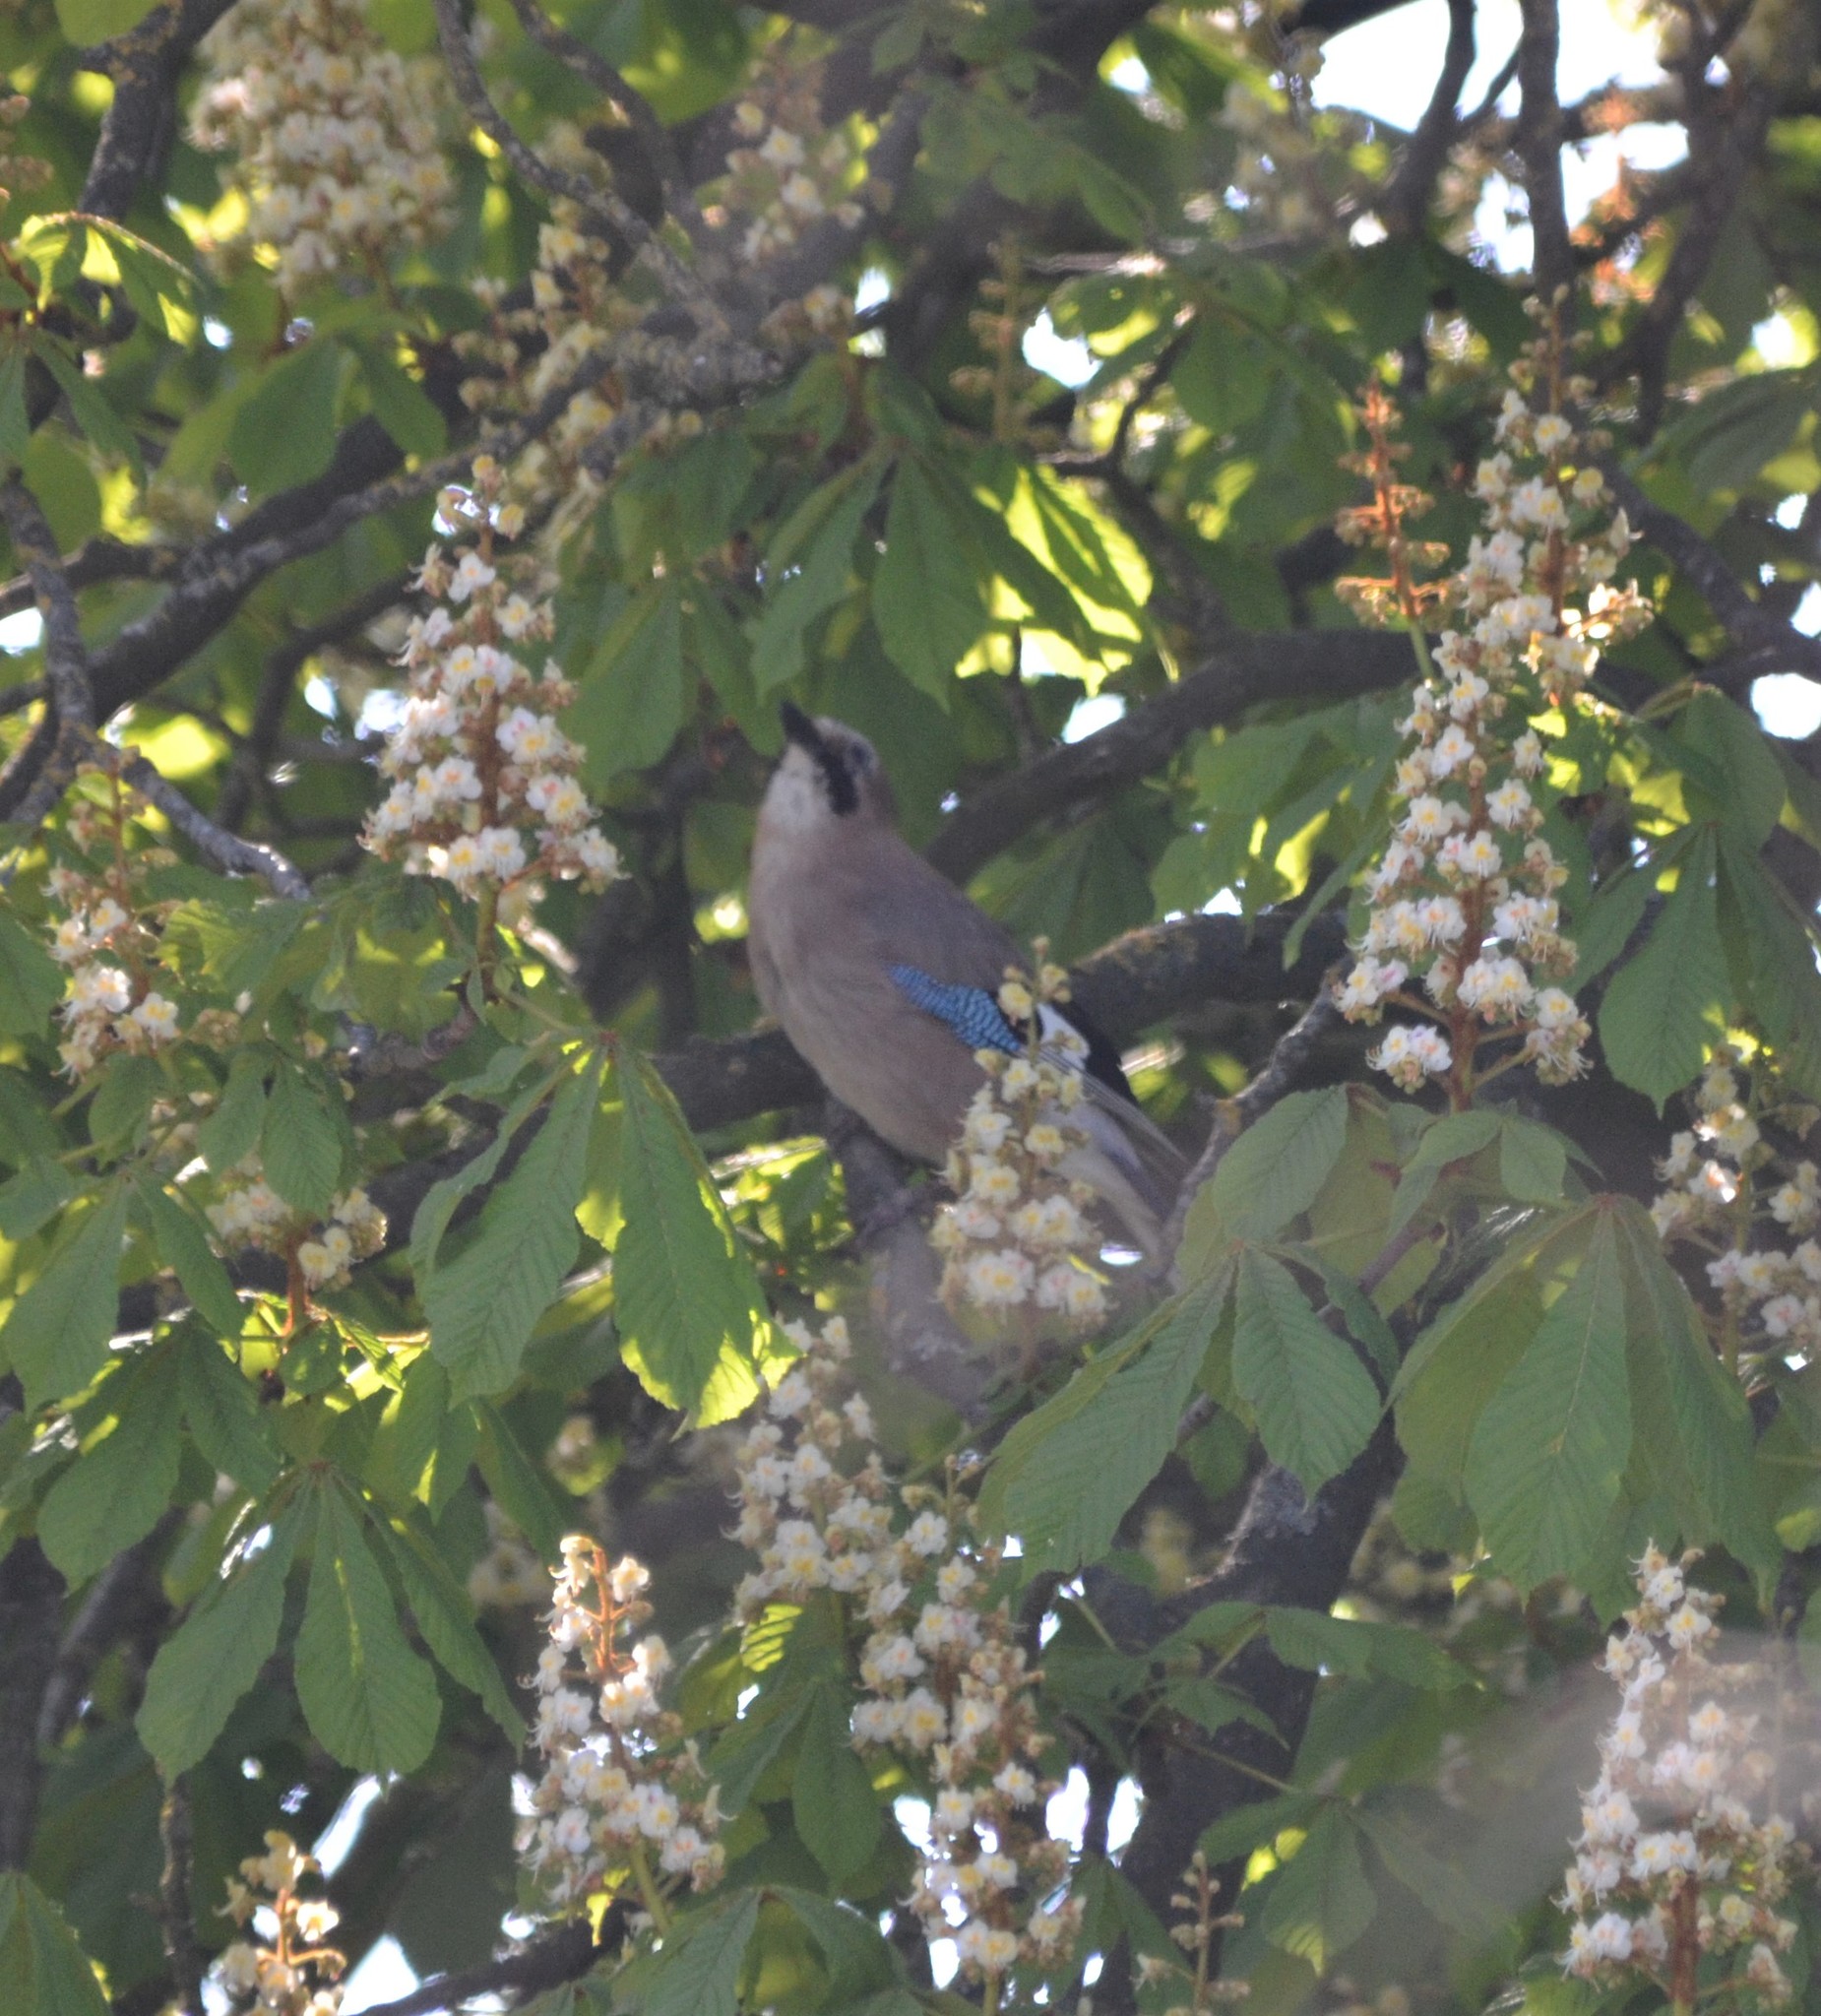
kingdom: Animalia
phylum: Chordata
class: Aves
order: Passeriformes
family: Corvidae
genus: Garrulus
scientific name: Garrulus glandarius
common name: Eurasian jay
